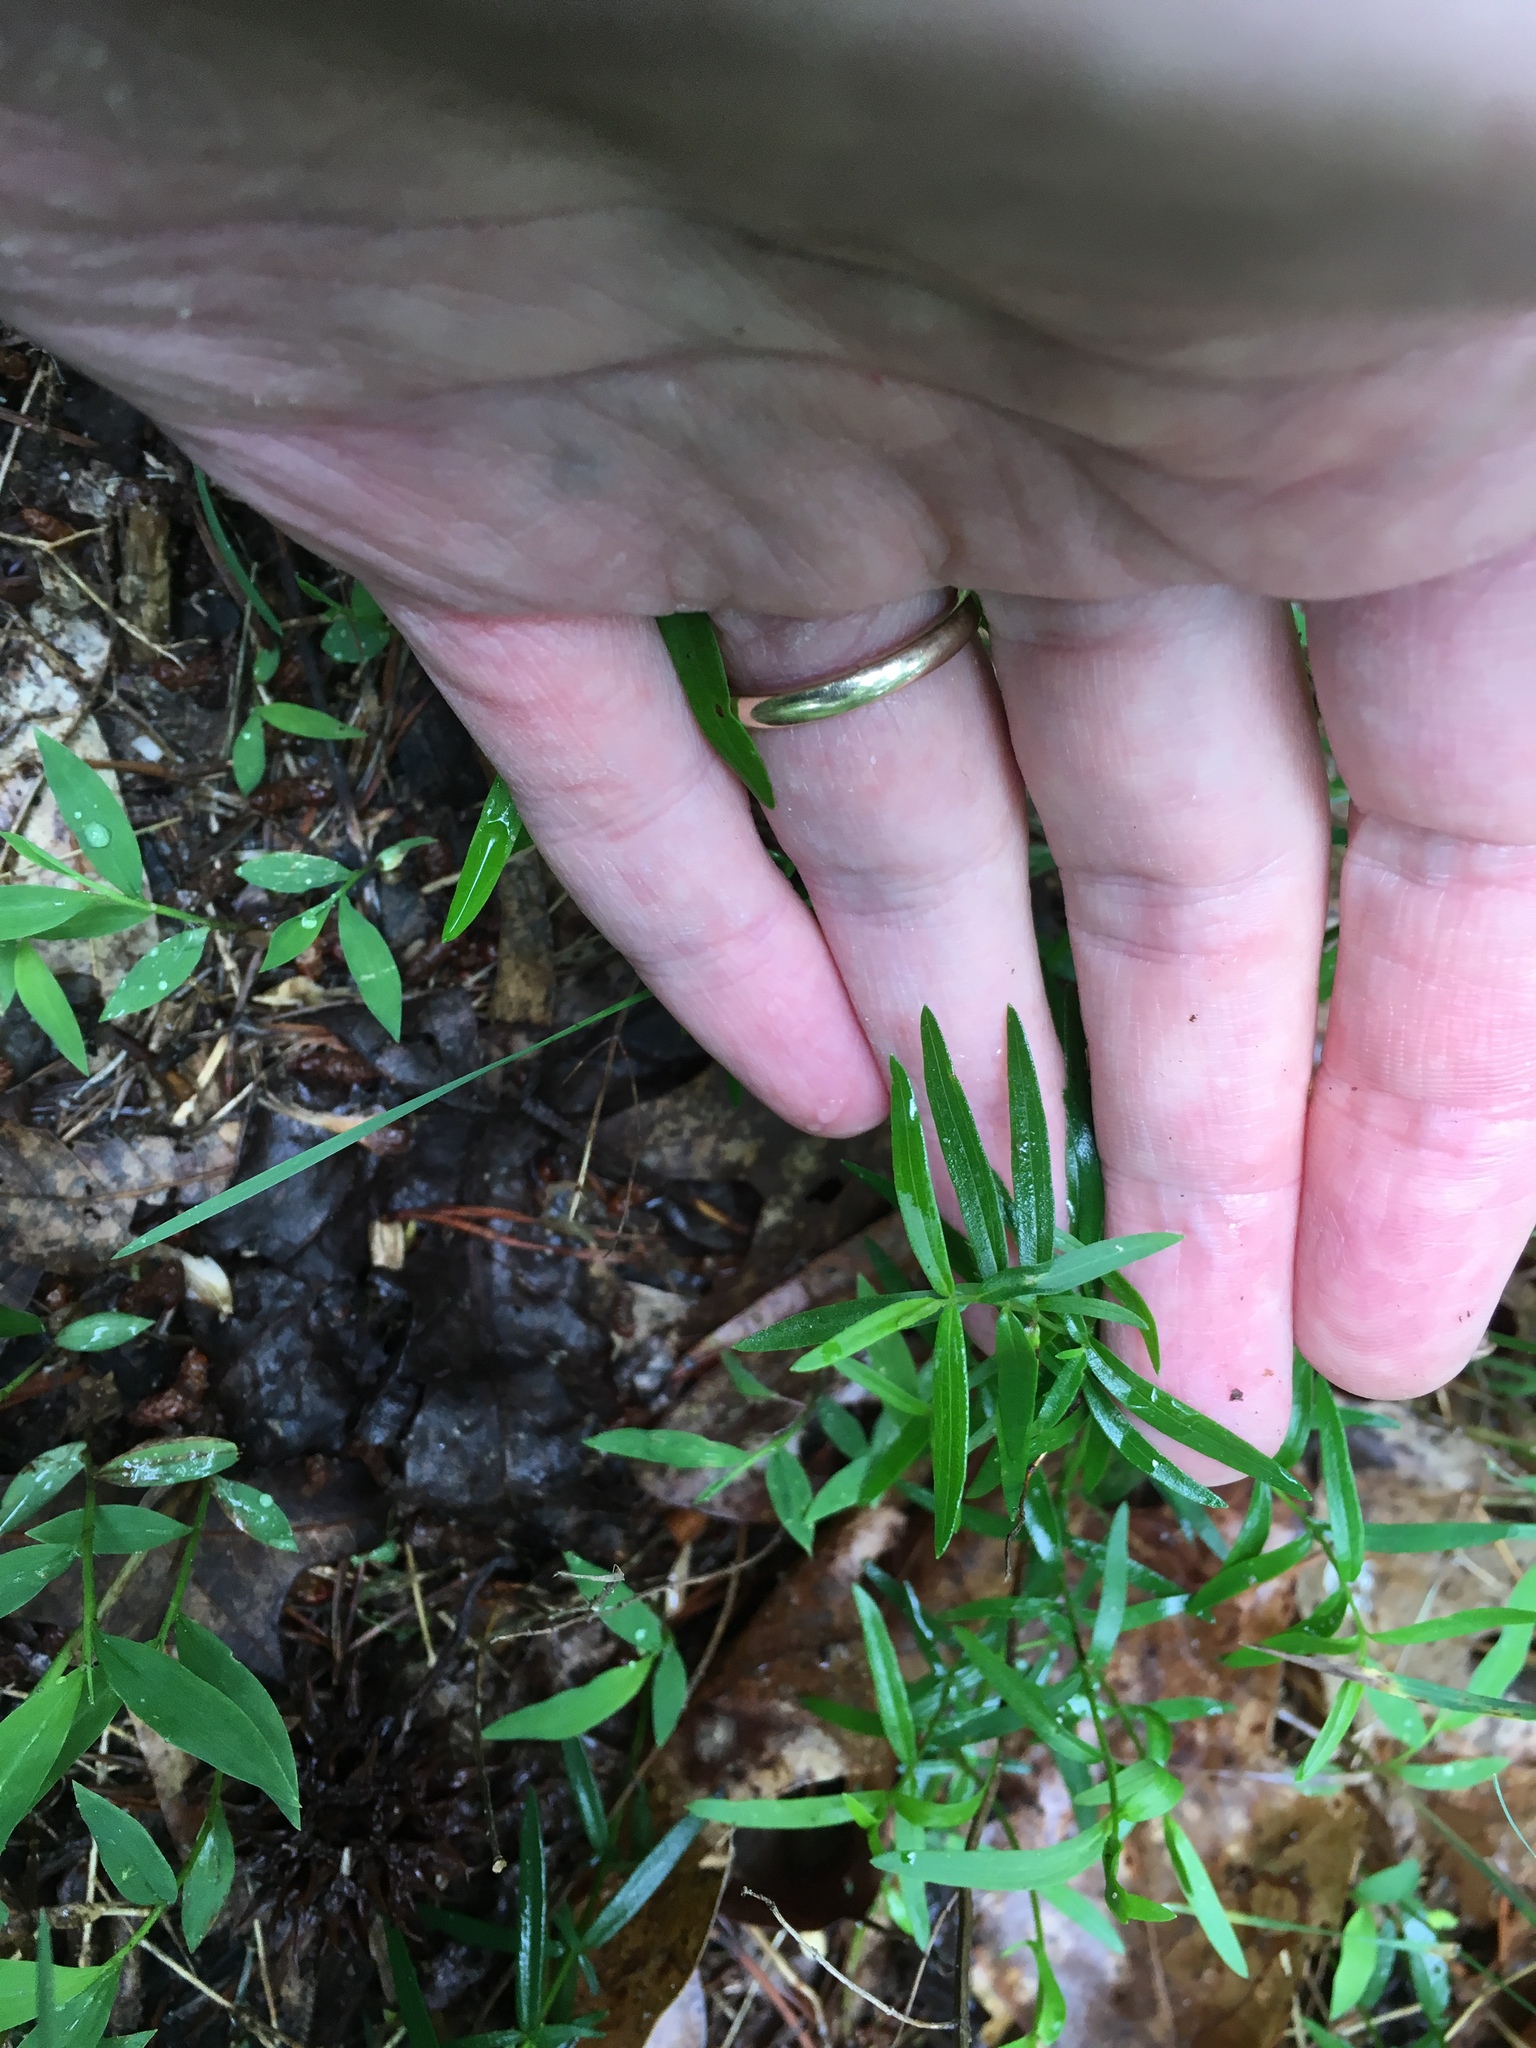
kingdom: Plantae
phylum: Tracheophyta
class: Magnoliopsida
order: Lamiales
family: Lamiaceae
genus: Pycnanthemum
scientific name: Pycnanthemum tenuifolium
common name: Narrow-leaf mountain-mint
